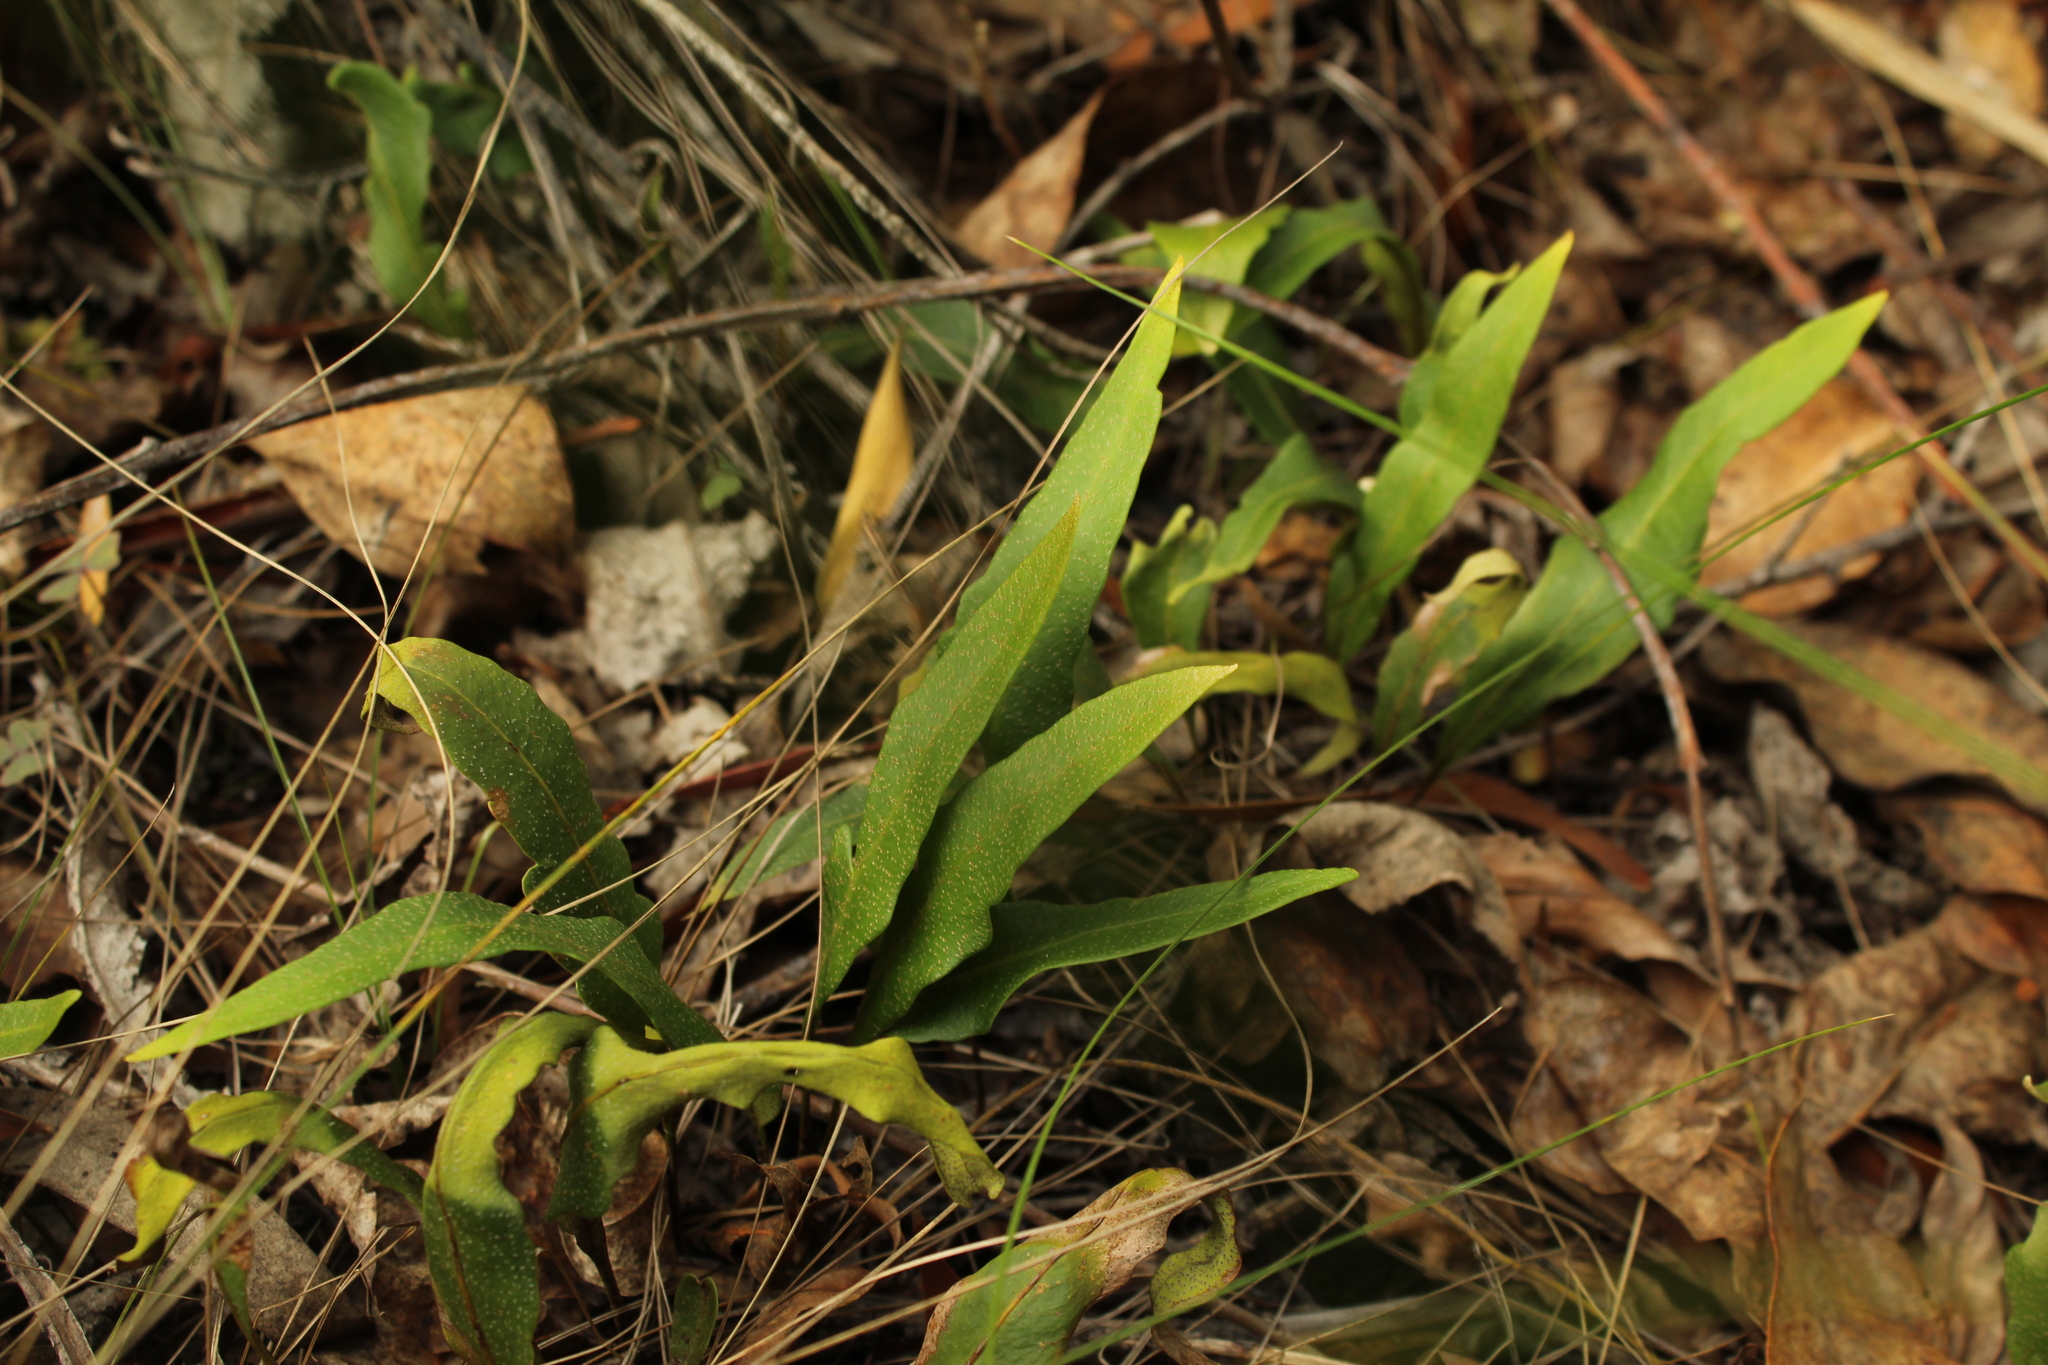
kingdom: Plantae
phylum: Tracheophyta
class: Polypodiopsida
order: Polypodiales
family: Polypodiaceae
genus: Pleopeltis
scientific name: Pleopeltis macrocarpa
